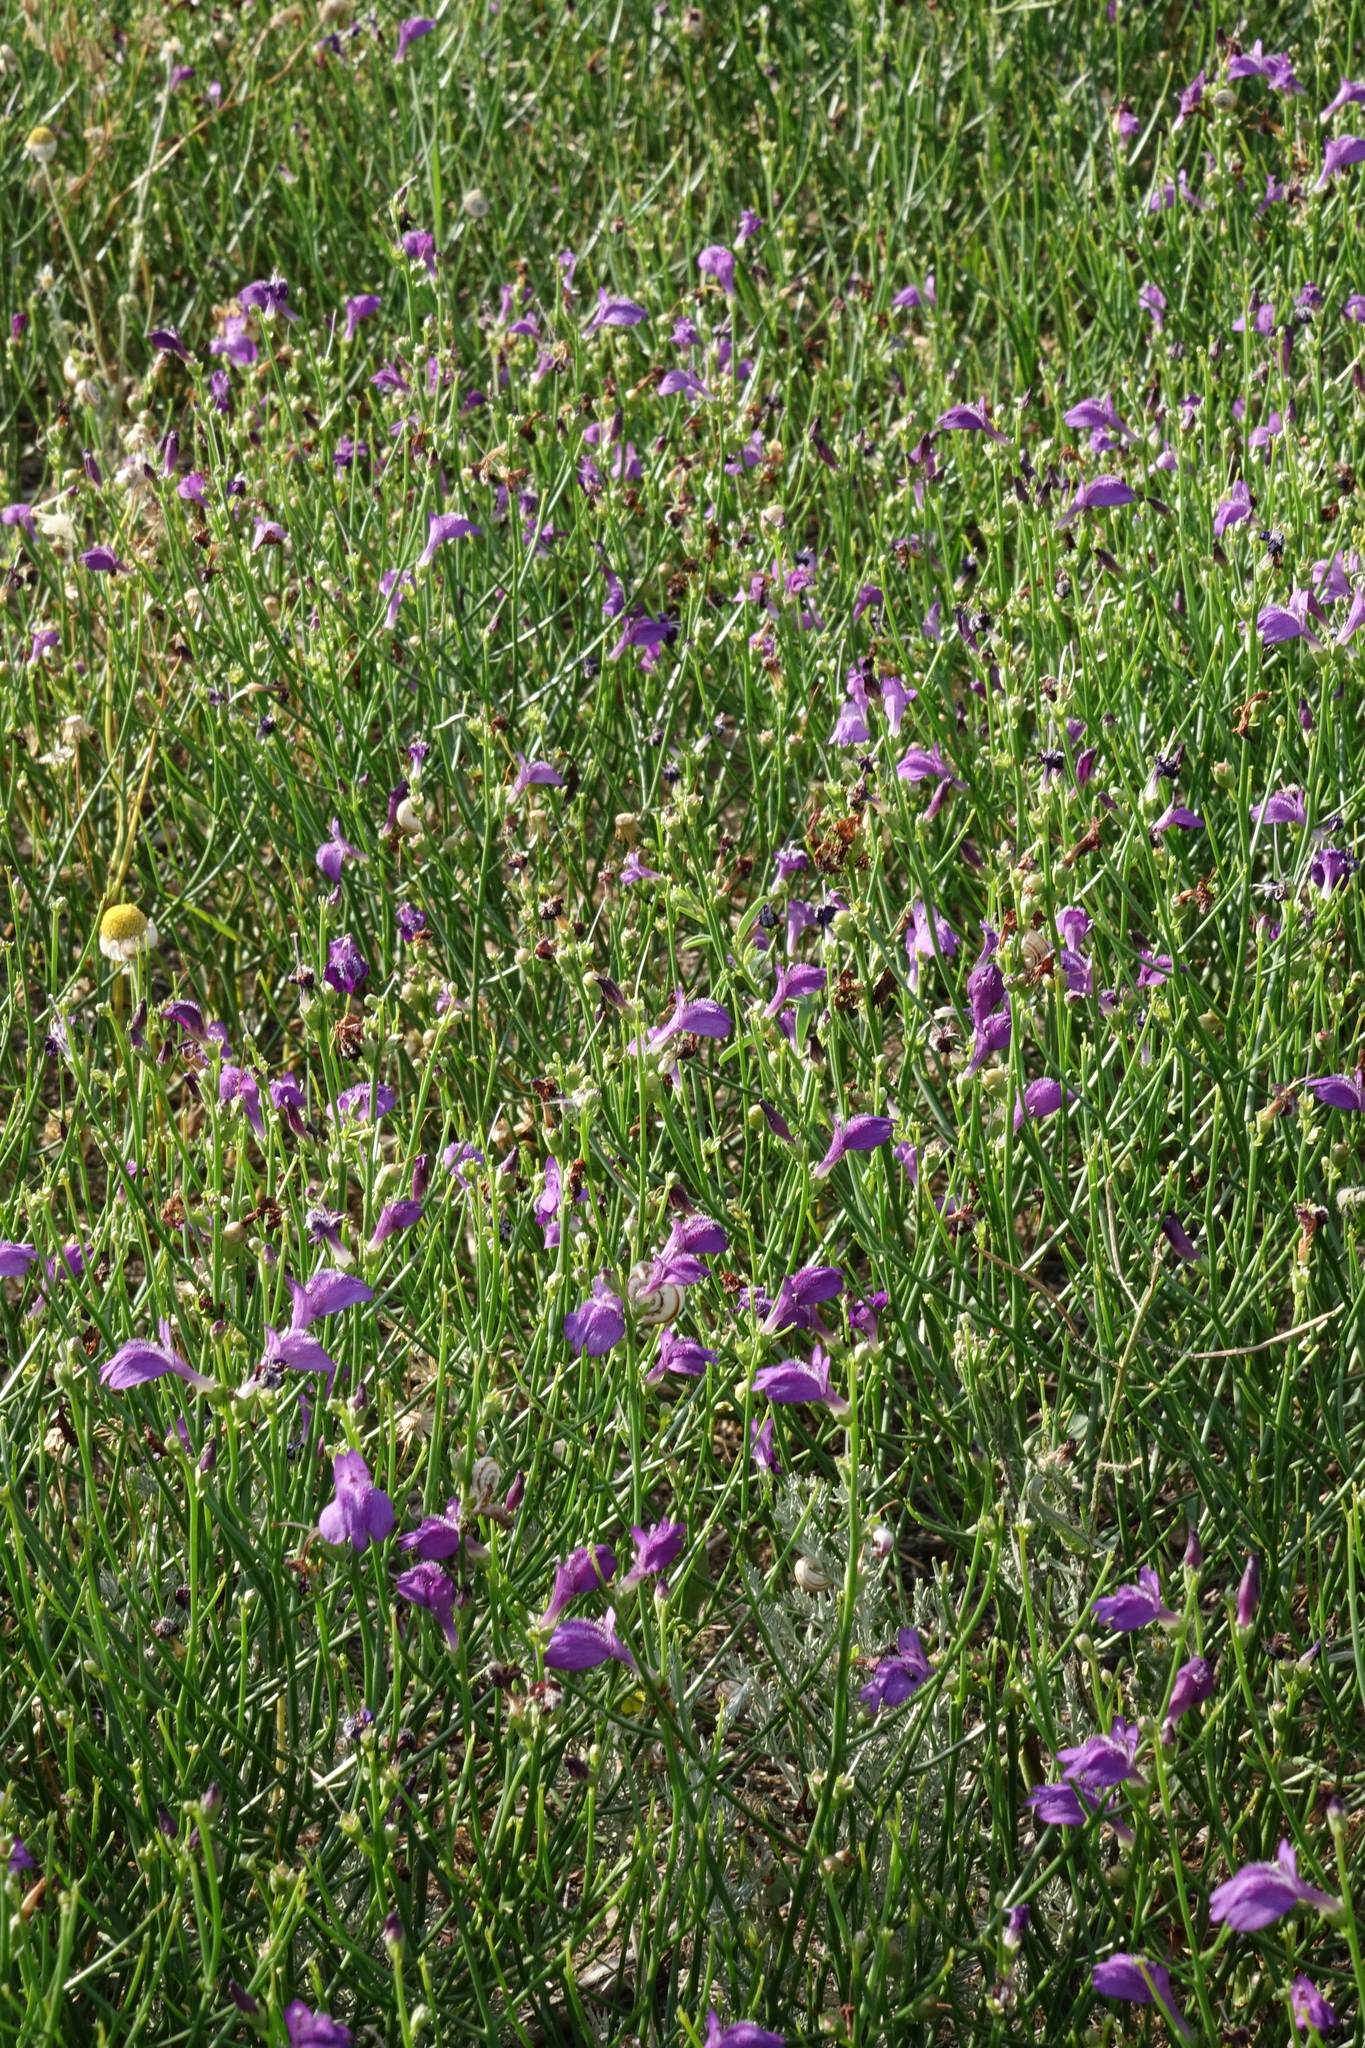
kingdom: Plantae
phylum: Tracheophyta
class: Magnoliopsida
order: Lamiales
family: Mazaceae
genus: Dodartia
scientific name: Dodartia orientalis
